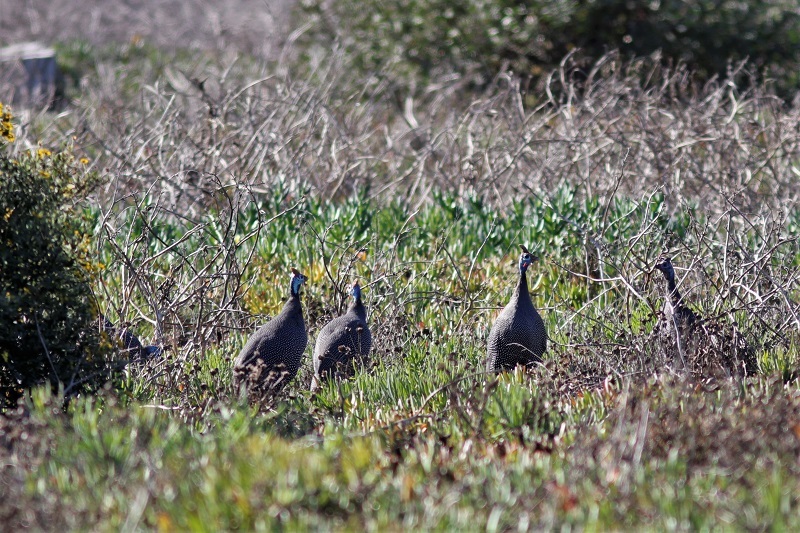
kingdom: Animalia
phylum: Chordata
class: Aves
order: Galliformes
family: Numididae
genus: Numida
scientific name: Numida meleagris
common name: Helmeted guineafowl
